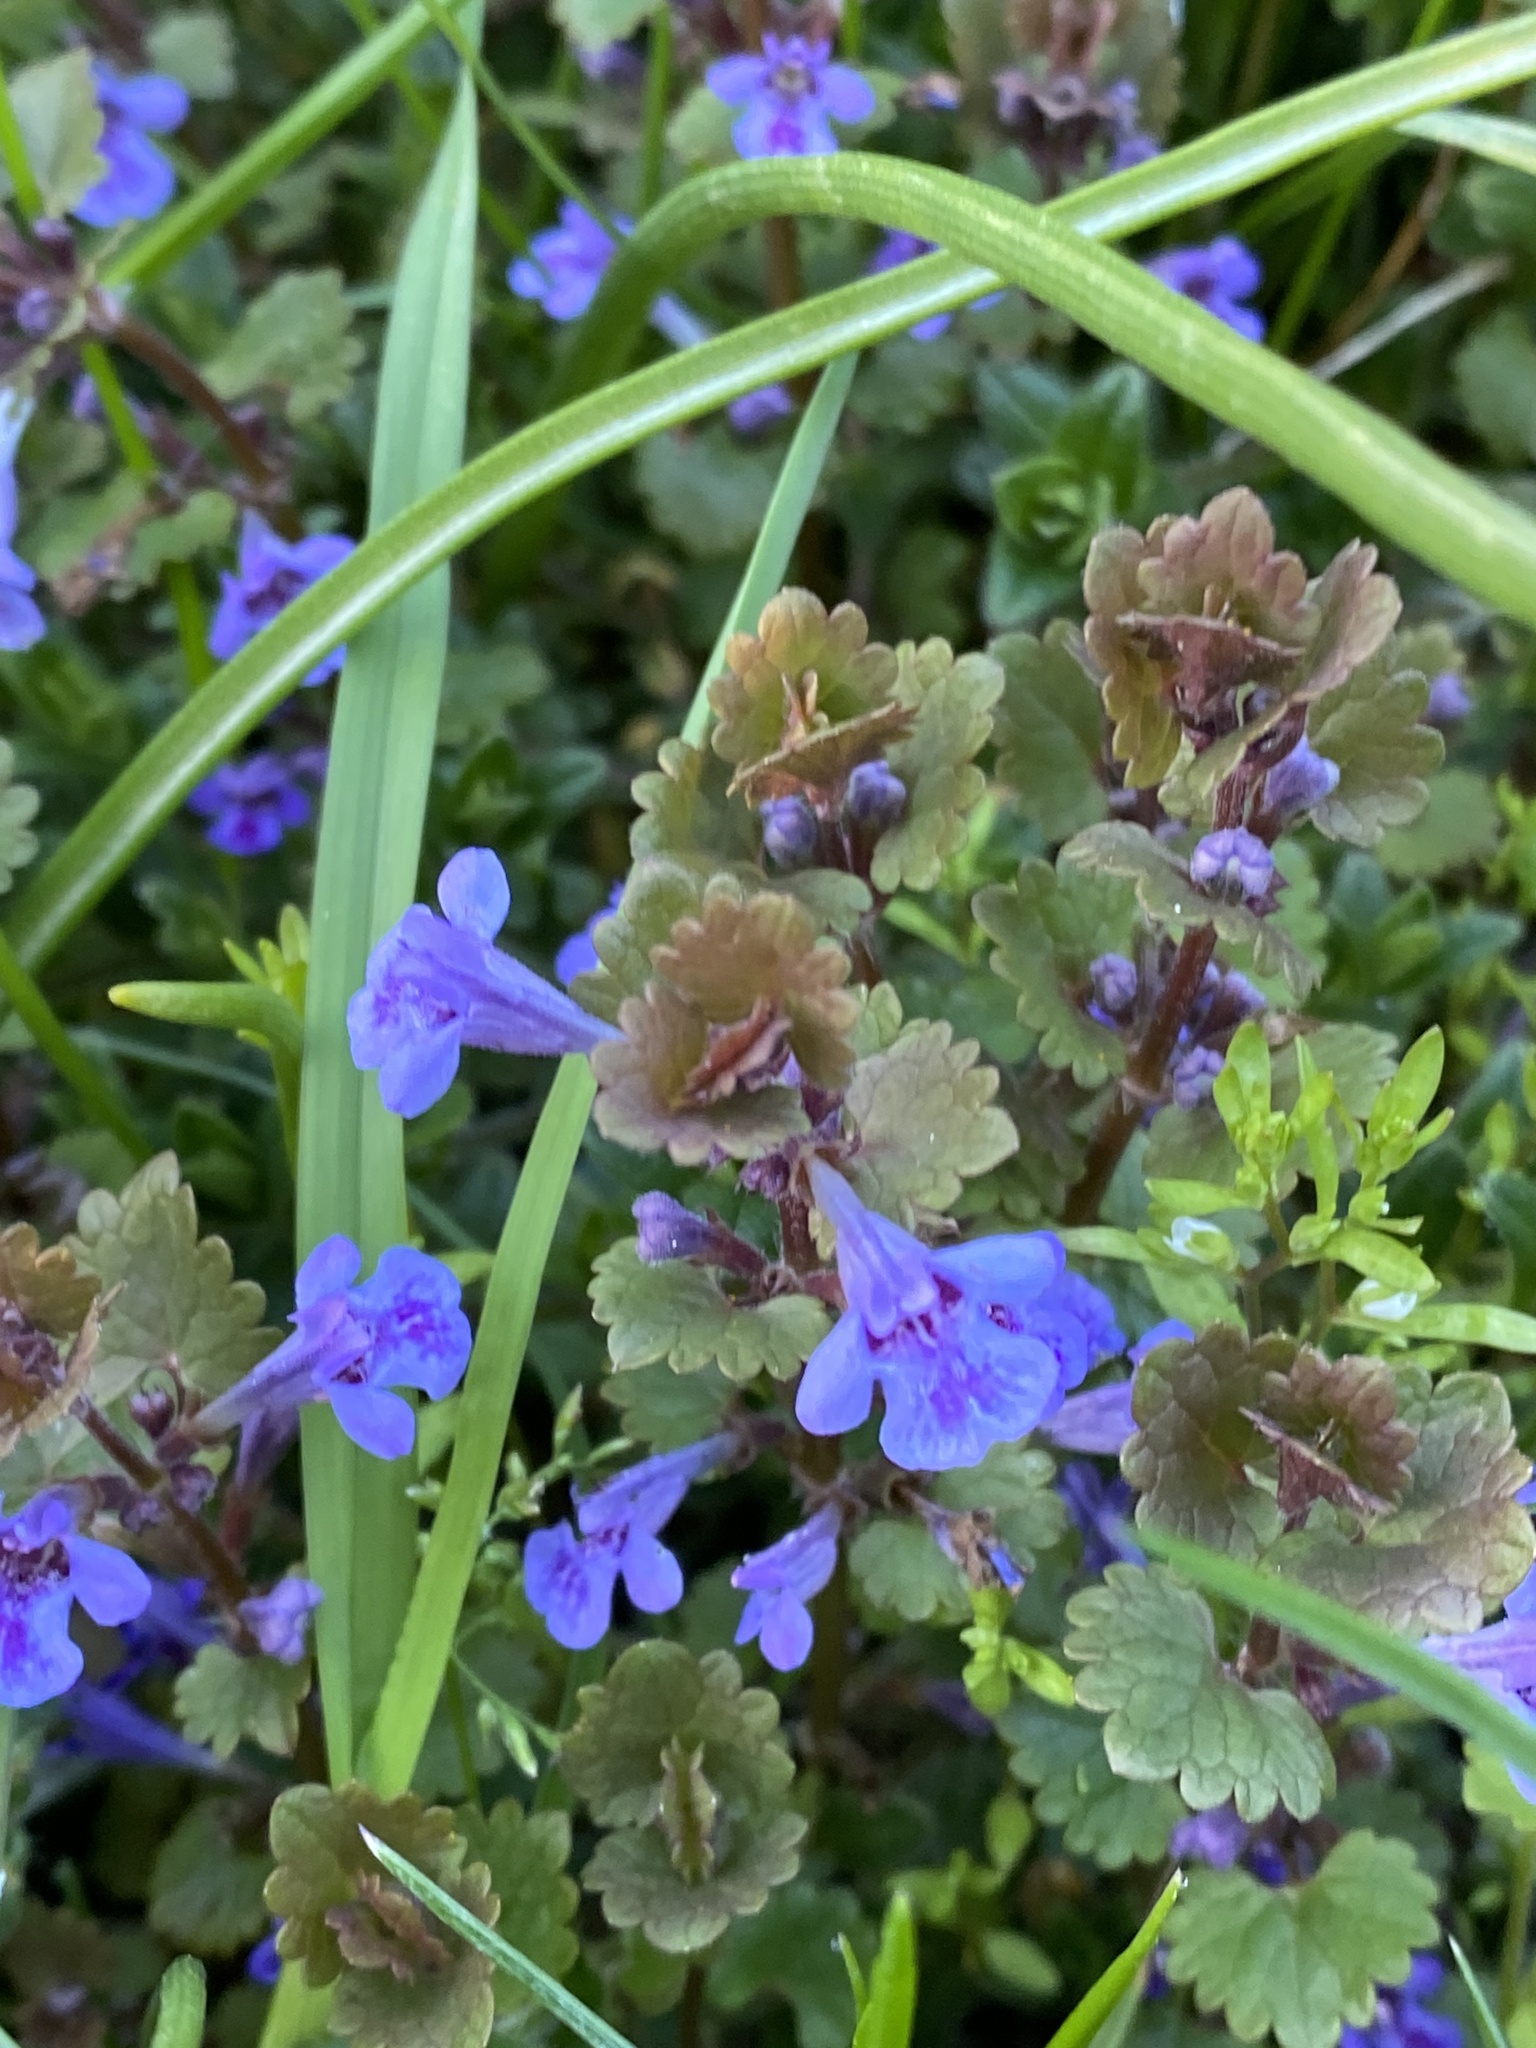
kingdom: Plantae
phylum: Tracheophyta
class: Magnoliopsida
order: Lamiales
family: Lamiaceae
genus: Glechoma
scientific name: Glechoma hederacea
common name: Ground ivy
